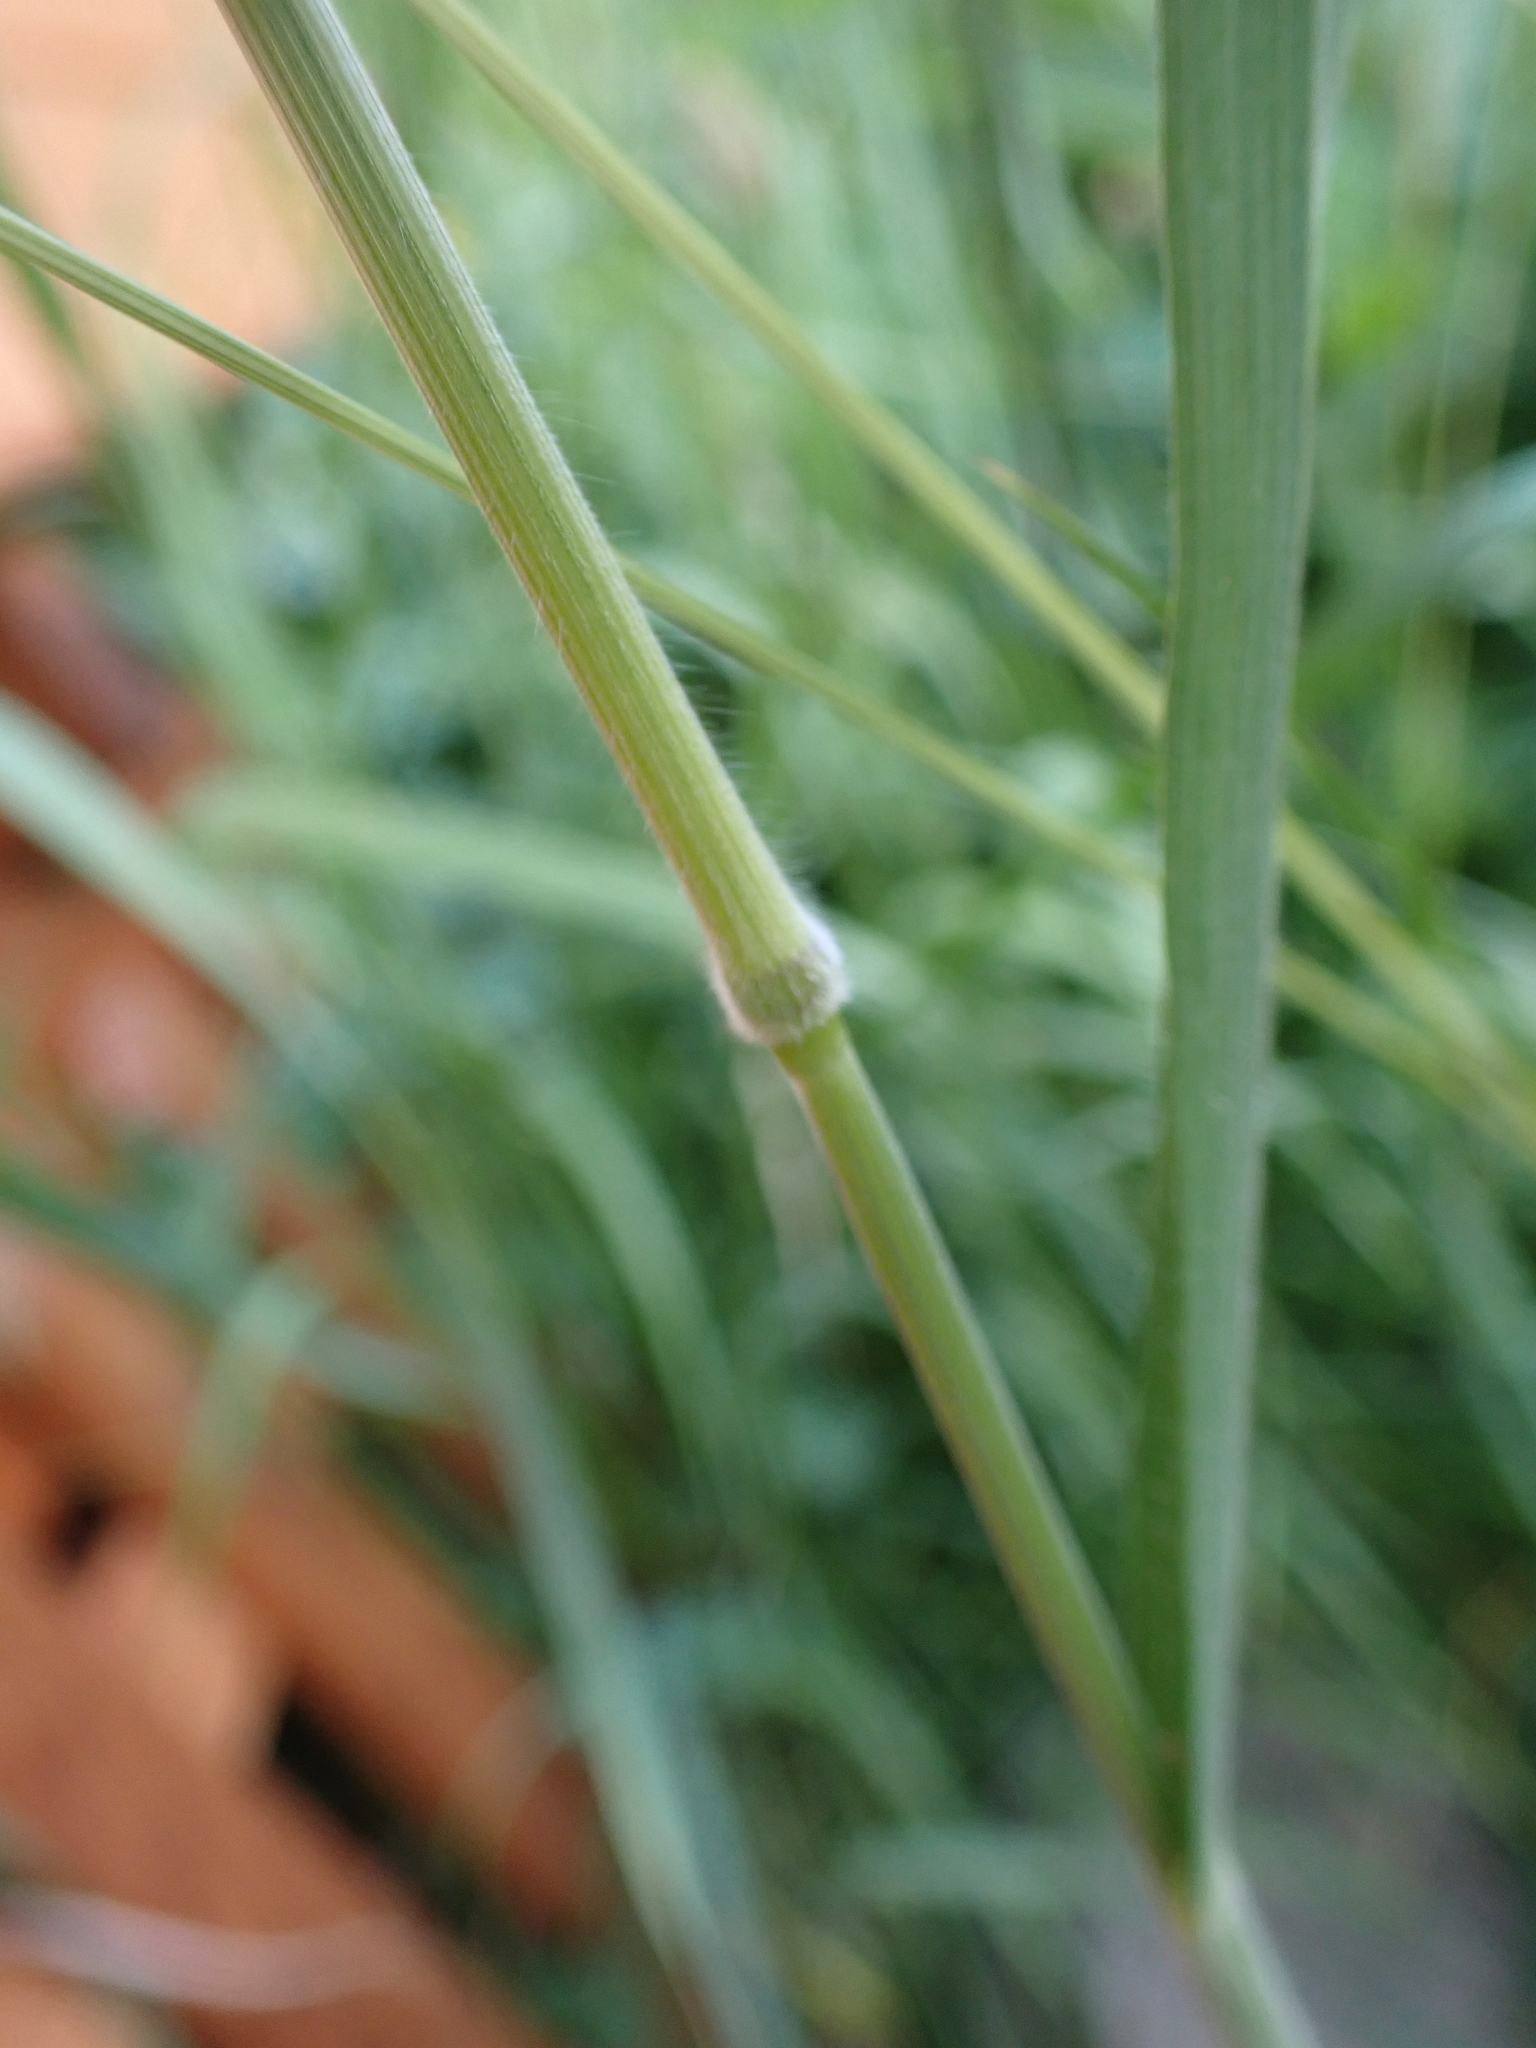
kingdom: Plantae
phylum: Tracheophyta
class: Liliopsida
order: Poales
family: Poaceae
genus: Bromus
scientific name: Bromus hordeaceus
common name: Soft brome
